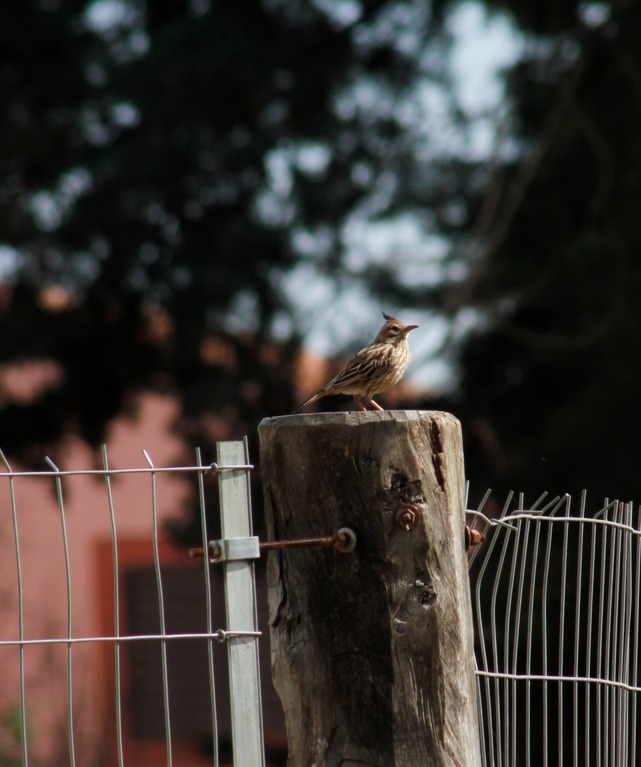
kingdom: Animalia
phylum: Chordata
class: Aves
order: Passeriformes
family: Furnariidae
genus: Coryphistera
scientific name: Coryphistera alaudina
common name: Lark-like brushrunner
